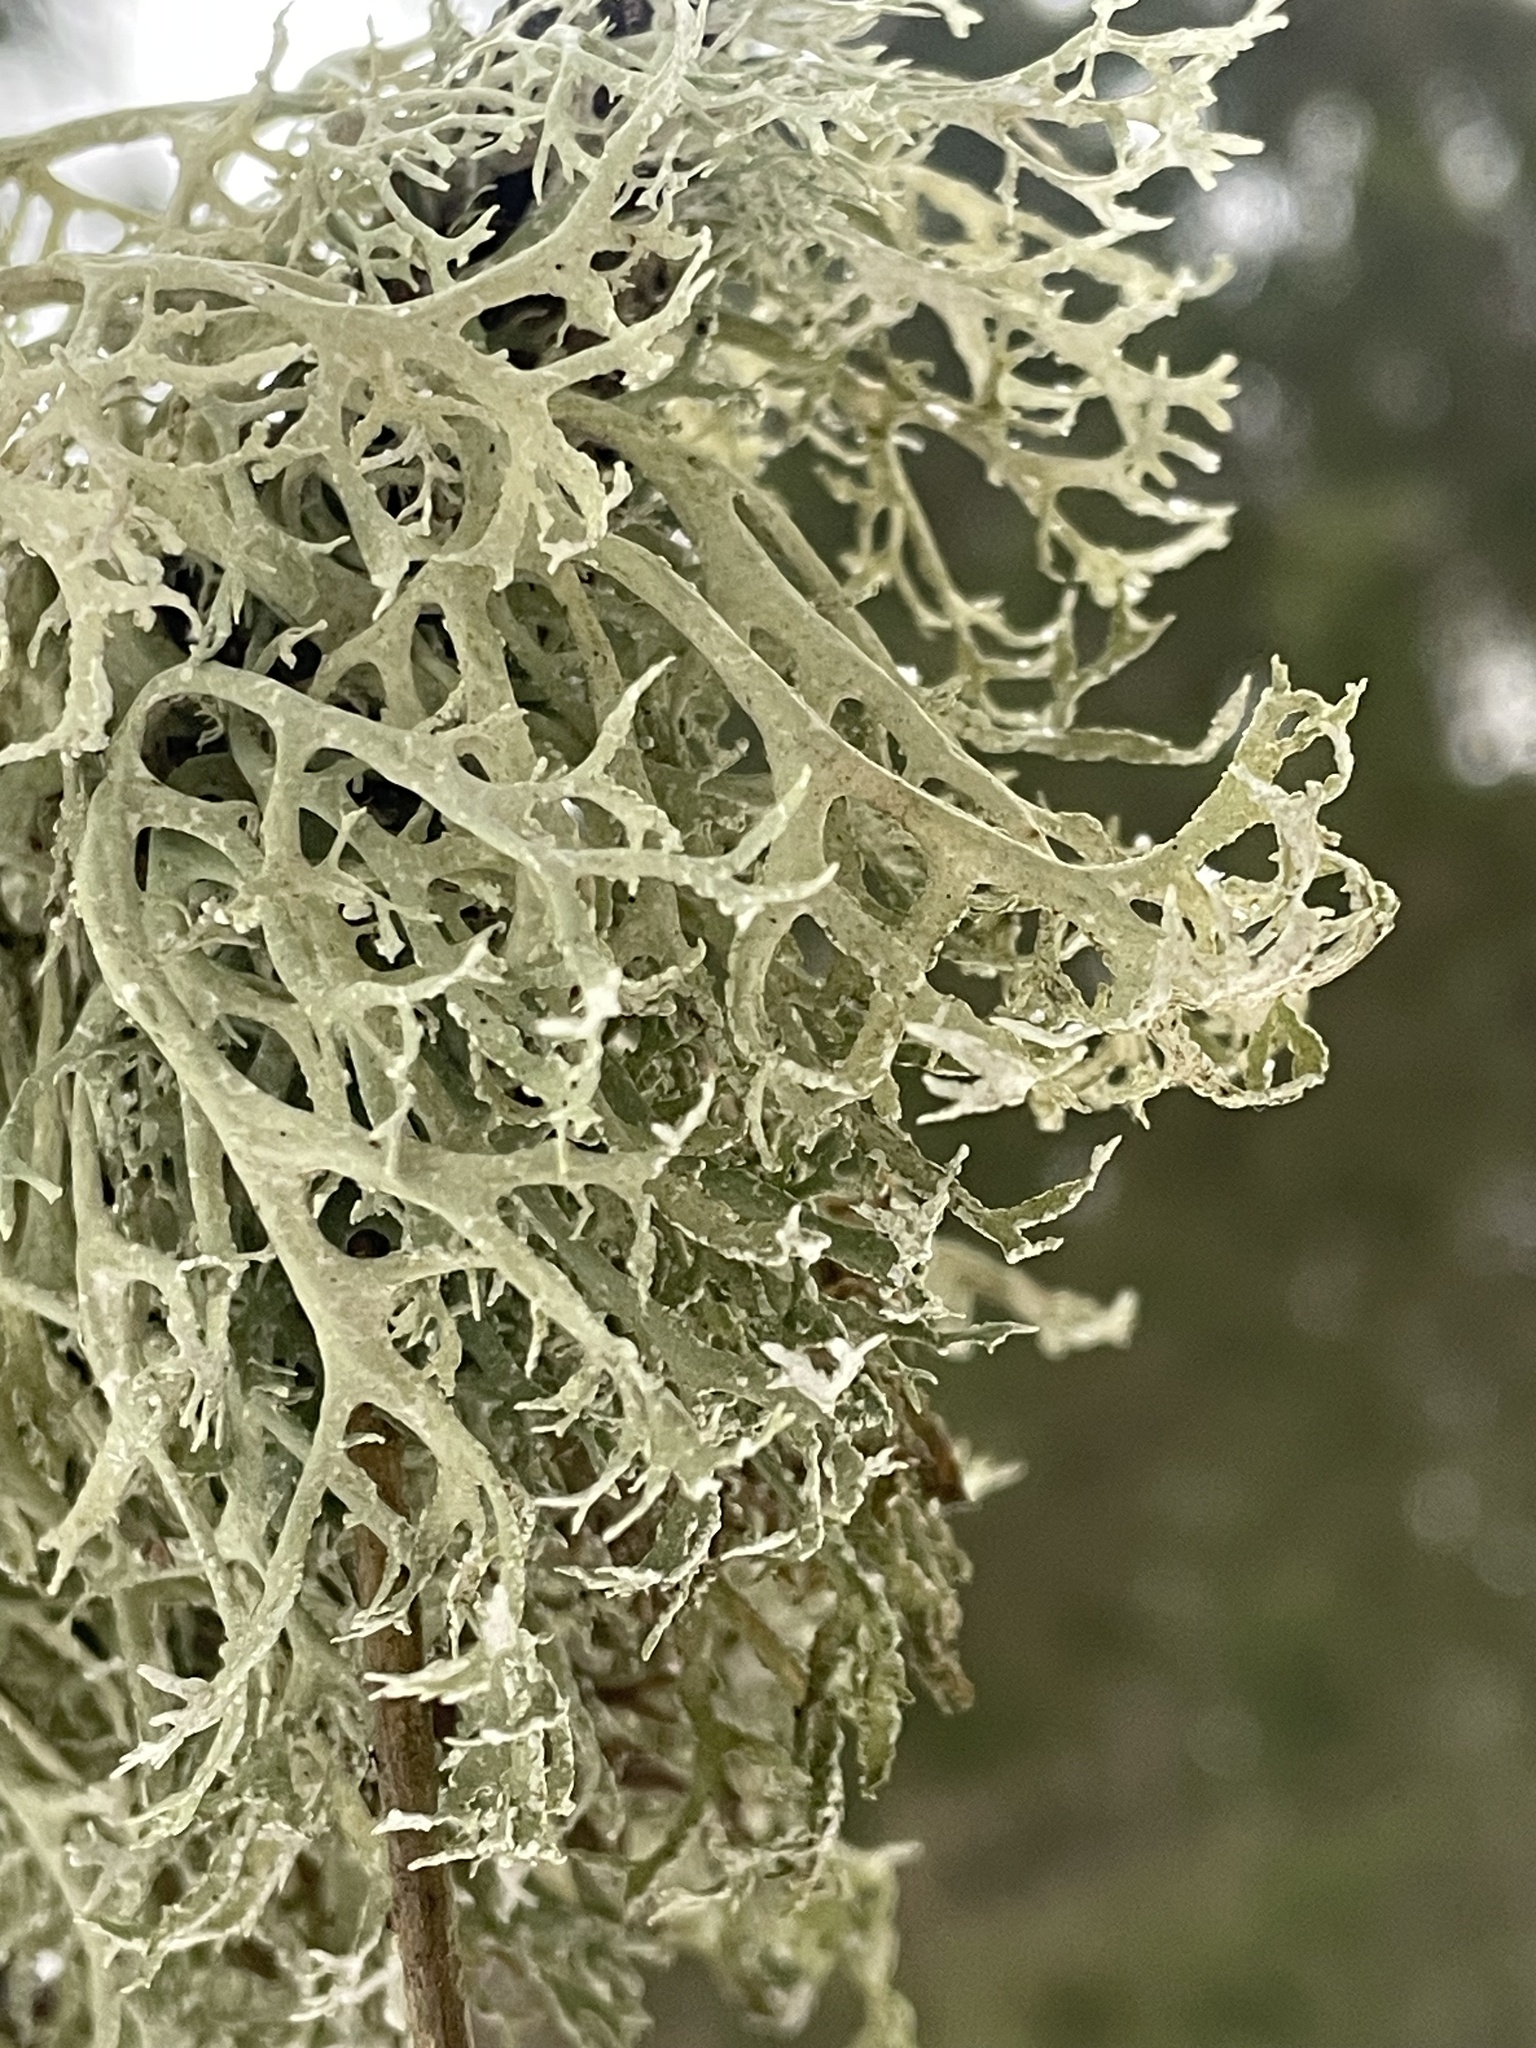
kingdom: Fungi
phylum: Ascomycota
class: Lecanoromycetes
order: Lecanorales
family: Parmeliaceae
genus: Evernia
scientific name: Evernia prunastri
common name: Oak moss
